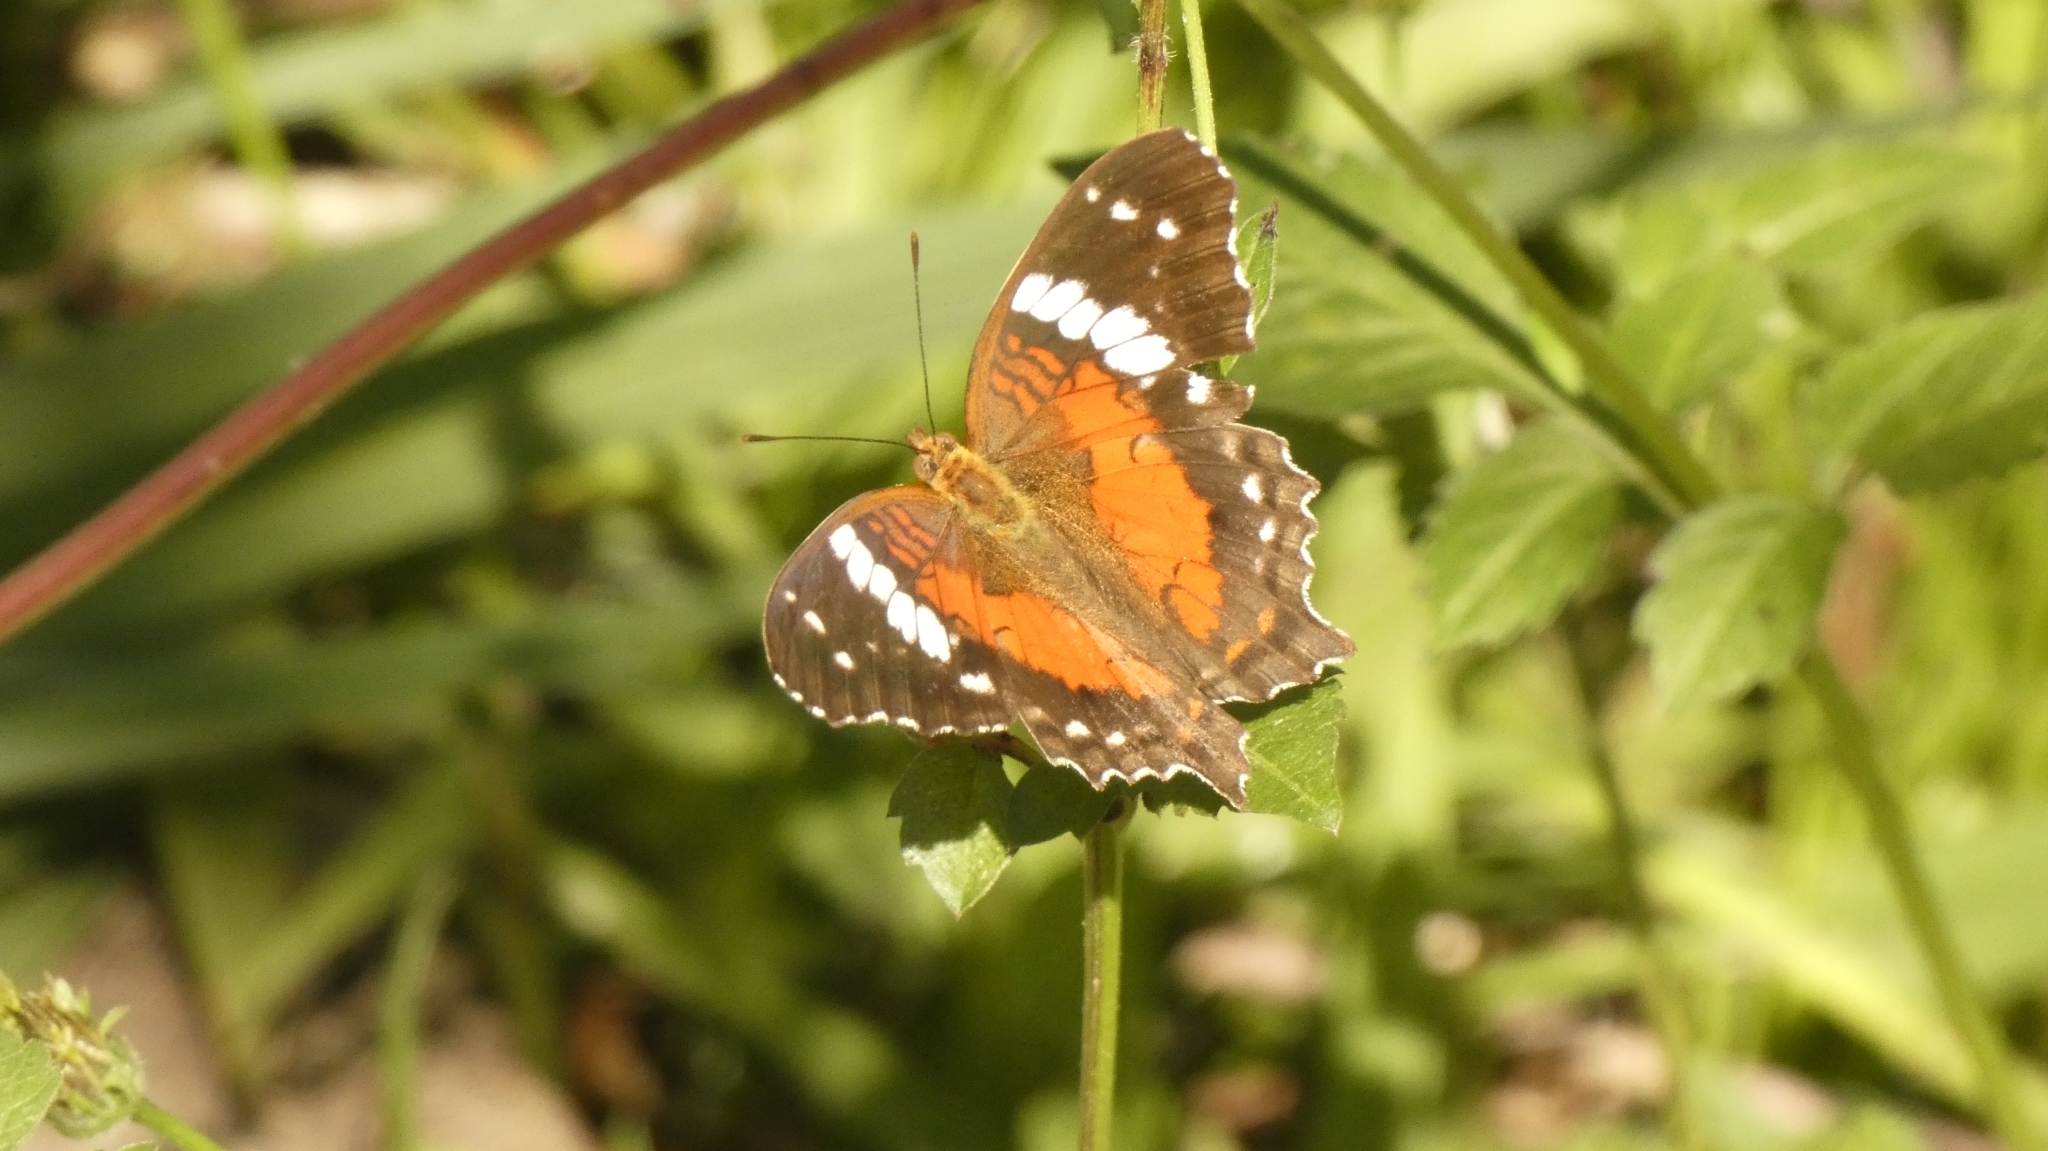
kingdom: Animalia
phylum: Arthropoda
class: Insecta
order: Lepidoptera
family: Nymphalidae
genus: Anartia
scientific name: Anartia amathea
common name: Red peacock
